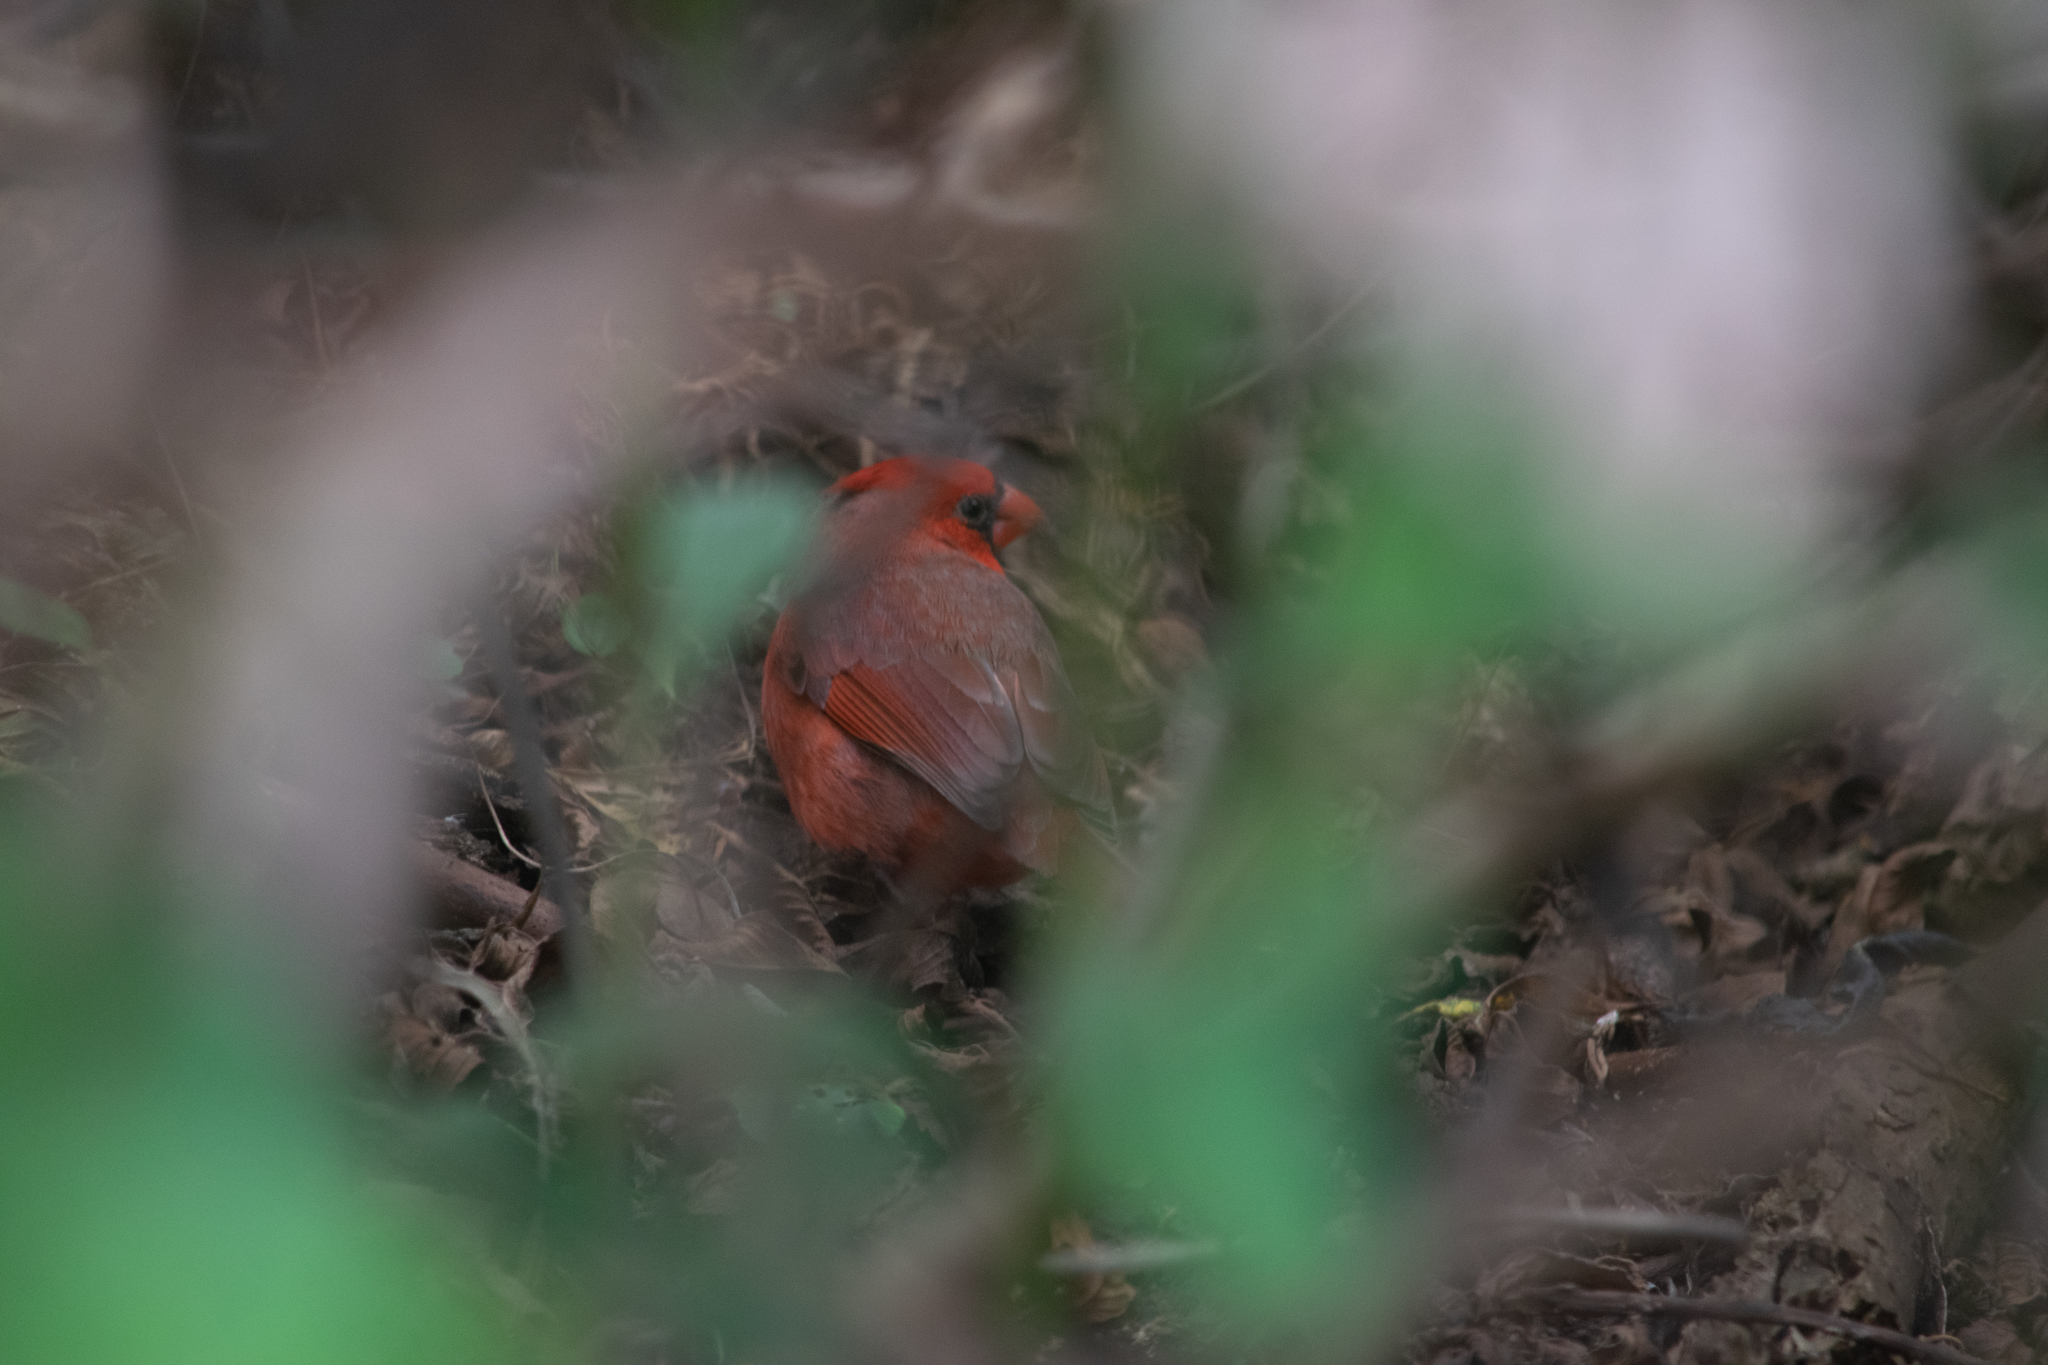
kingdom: Animalia
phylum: Chordata
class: Aves
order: Passeriformes
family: Cardinalidae
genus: Cardinalis
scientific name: Cardinalis cardinalis
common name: Northern cardinal
